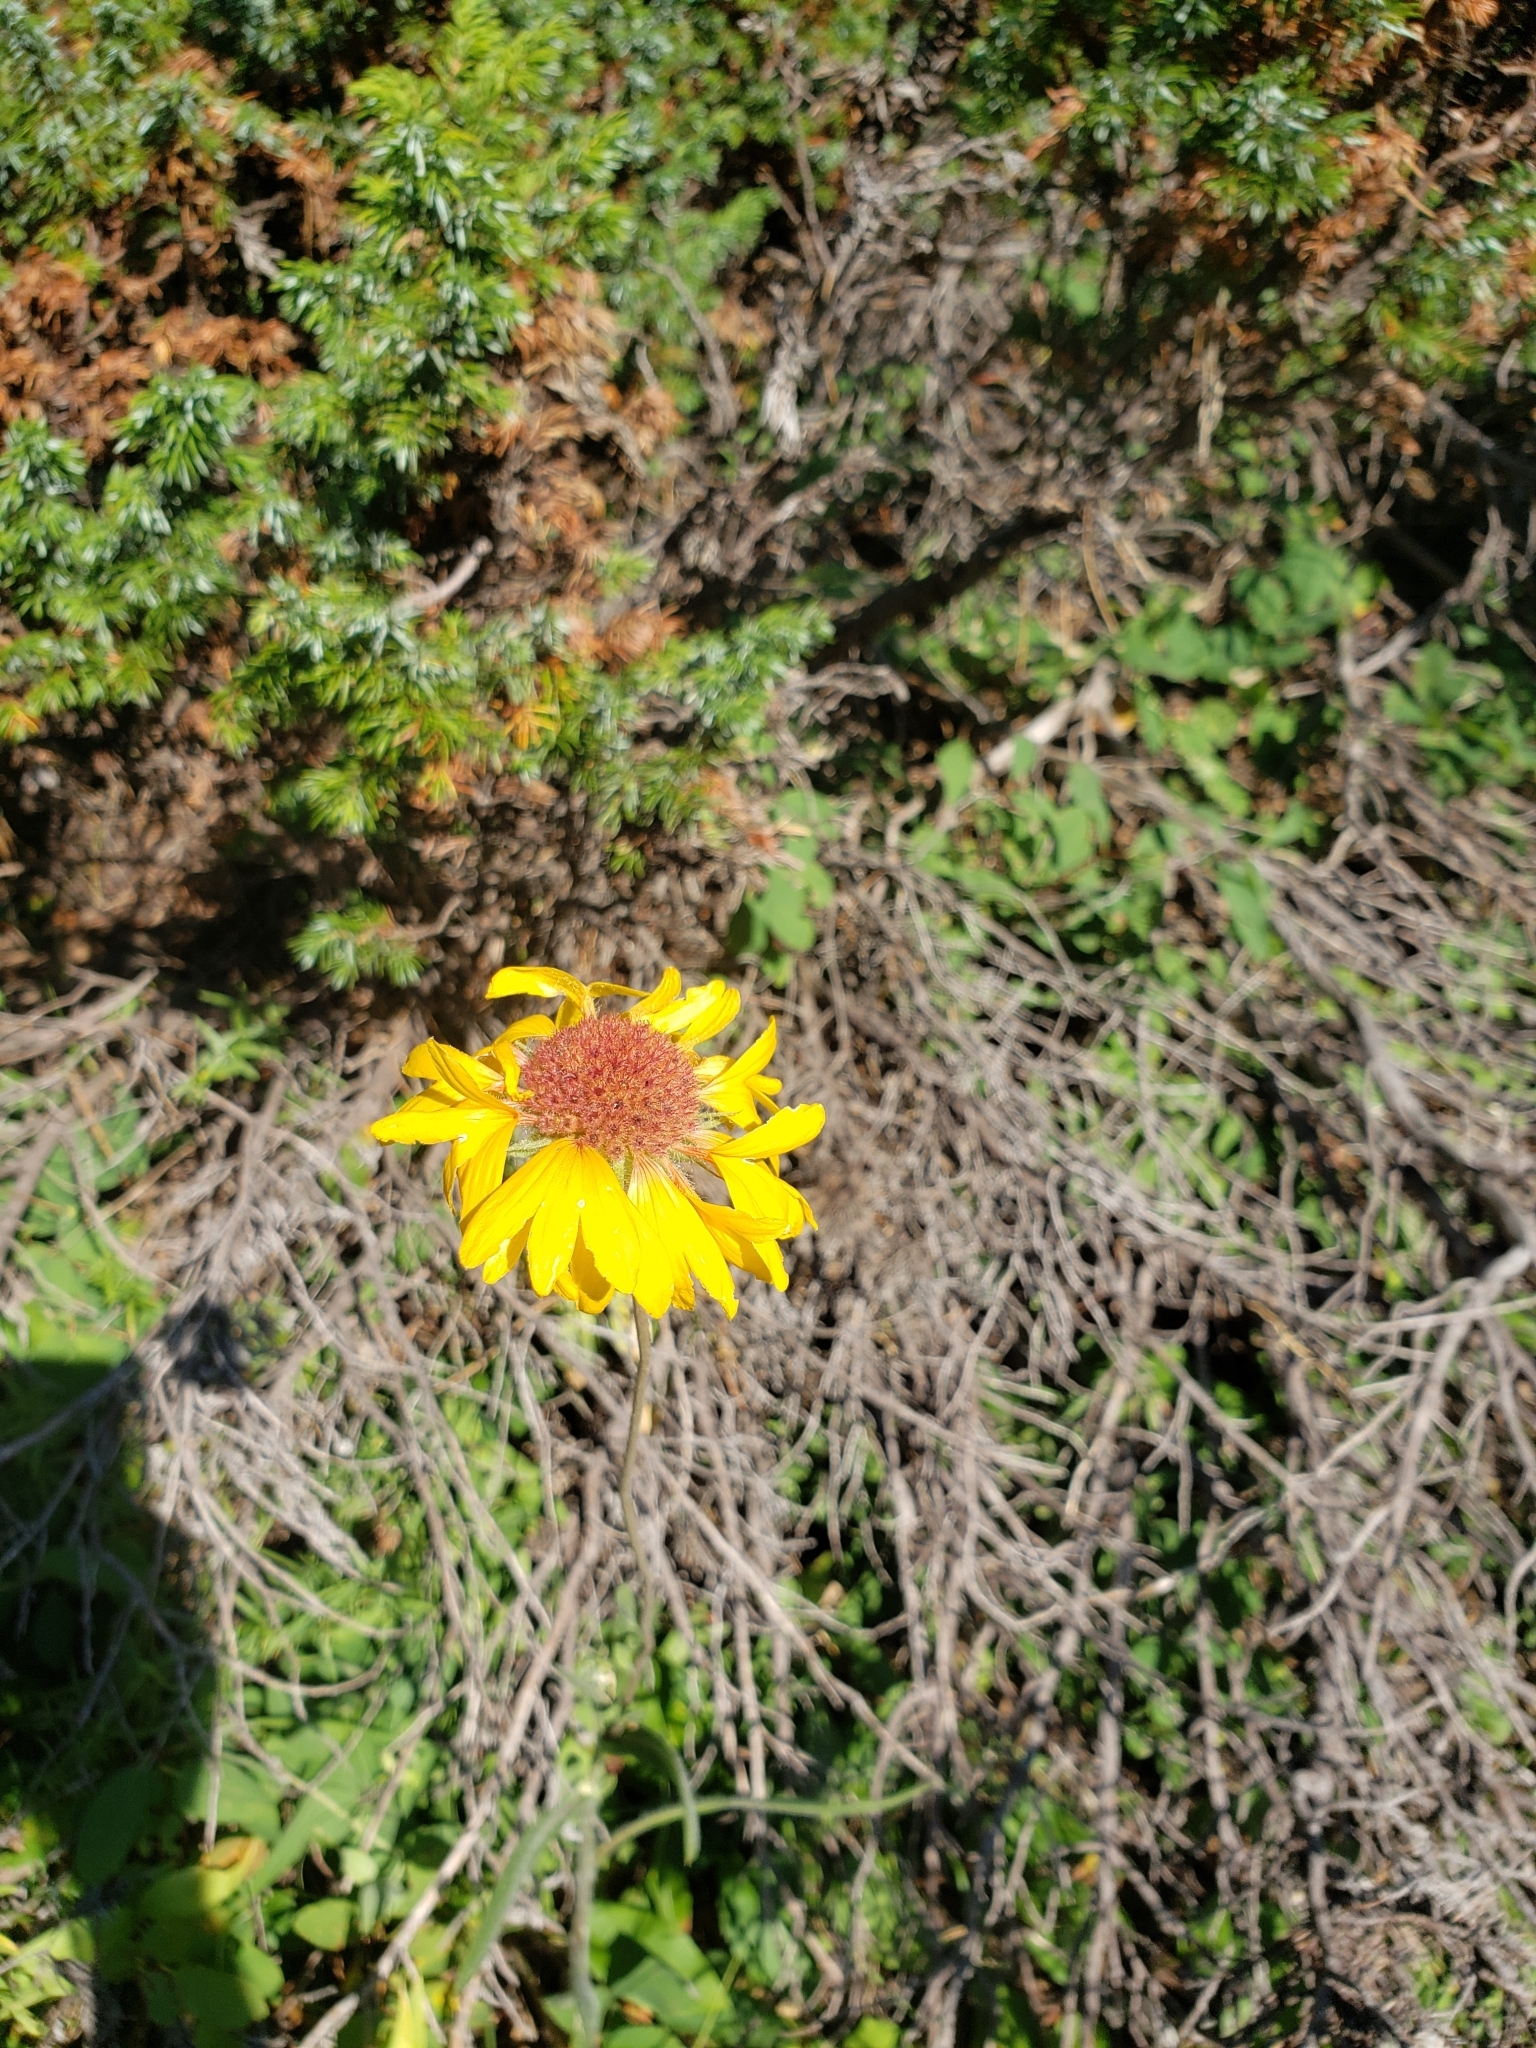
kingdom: Plantae
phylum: Tracheophyta
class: Magnoliopsida
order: Asterales
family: Asteraceae
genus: Gaillardia
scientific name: Gaillardia aristata
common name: Blanket-flower
